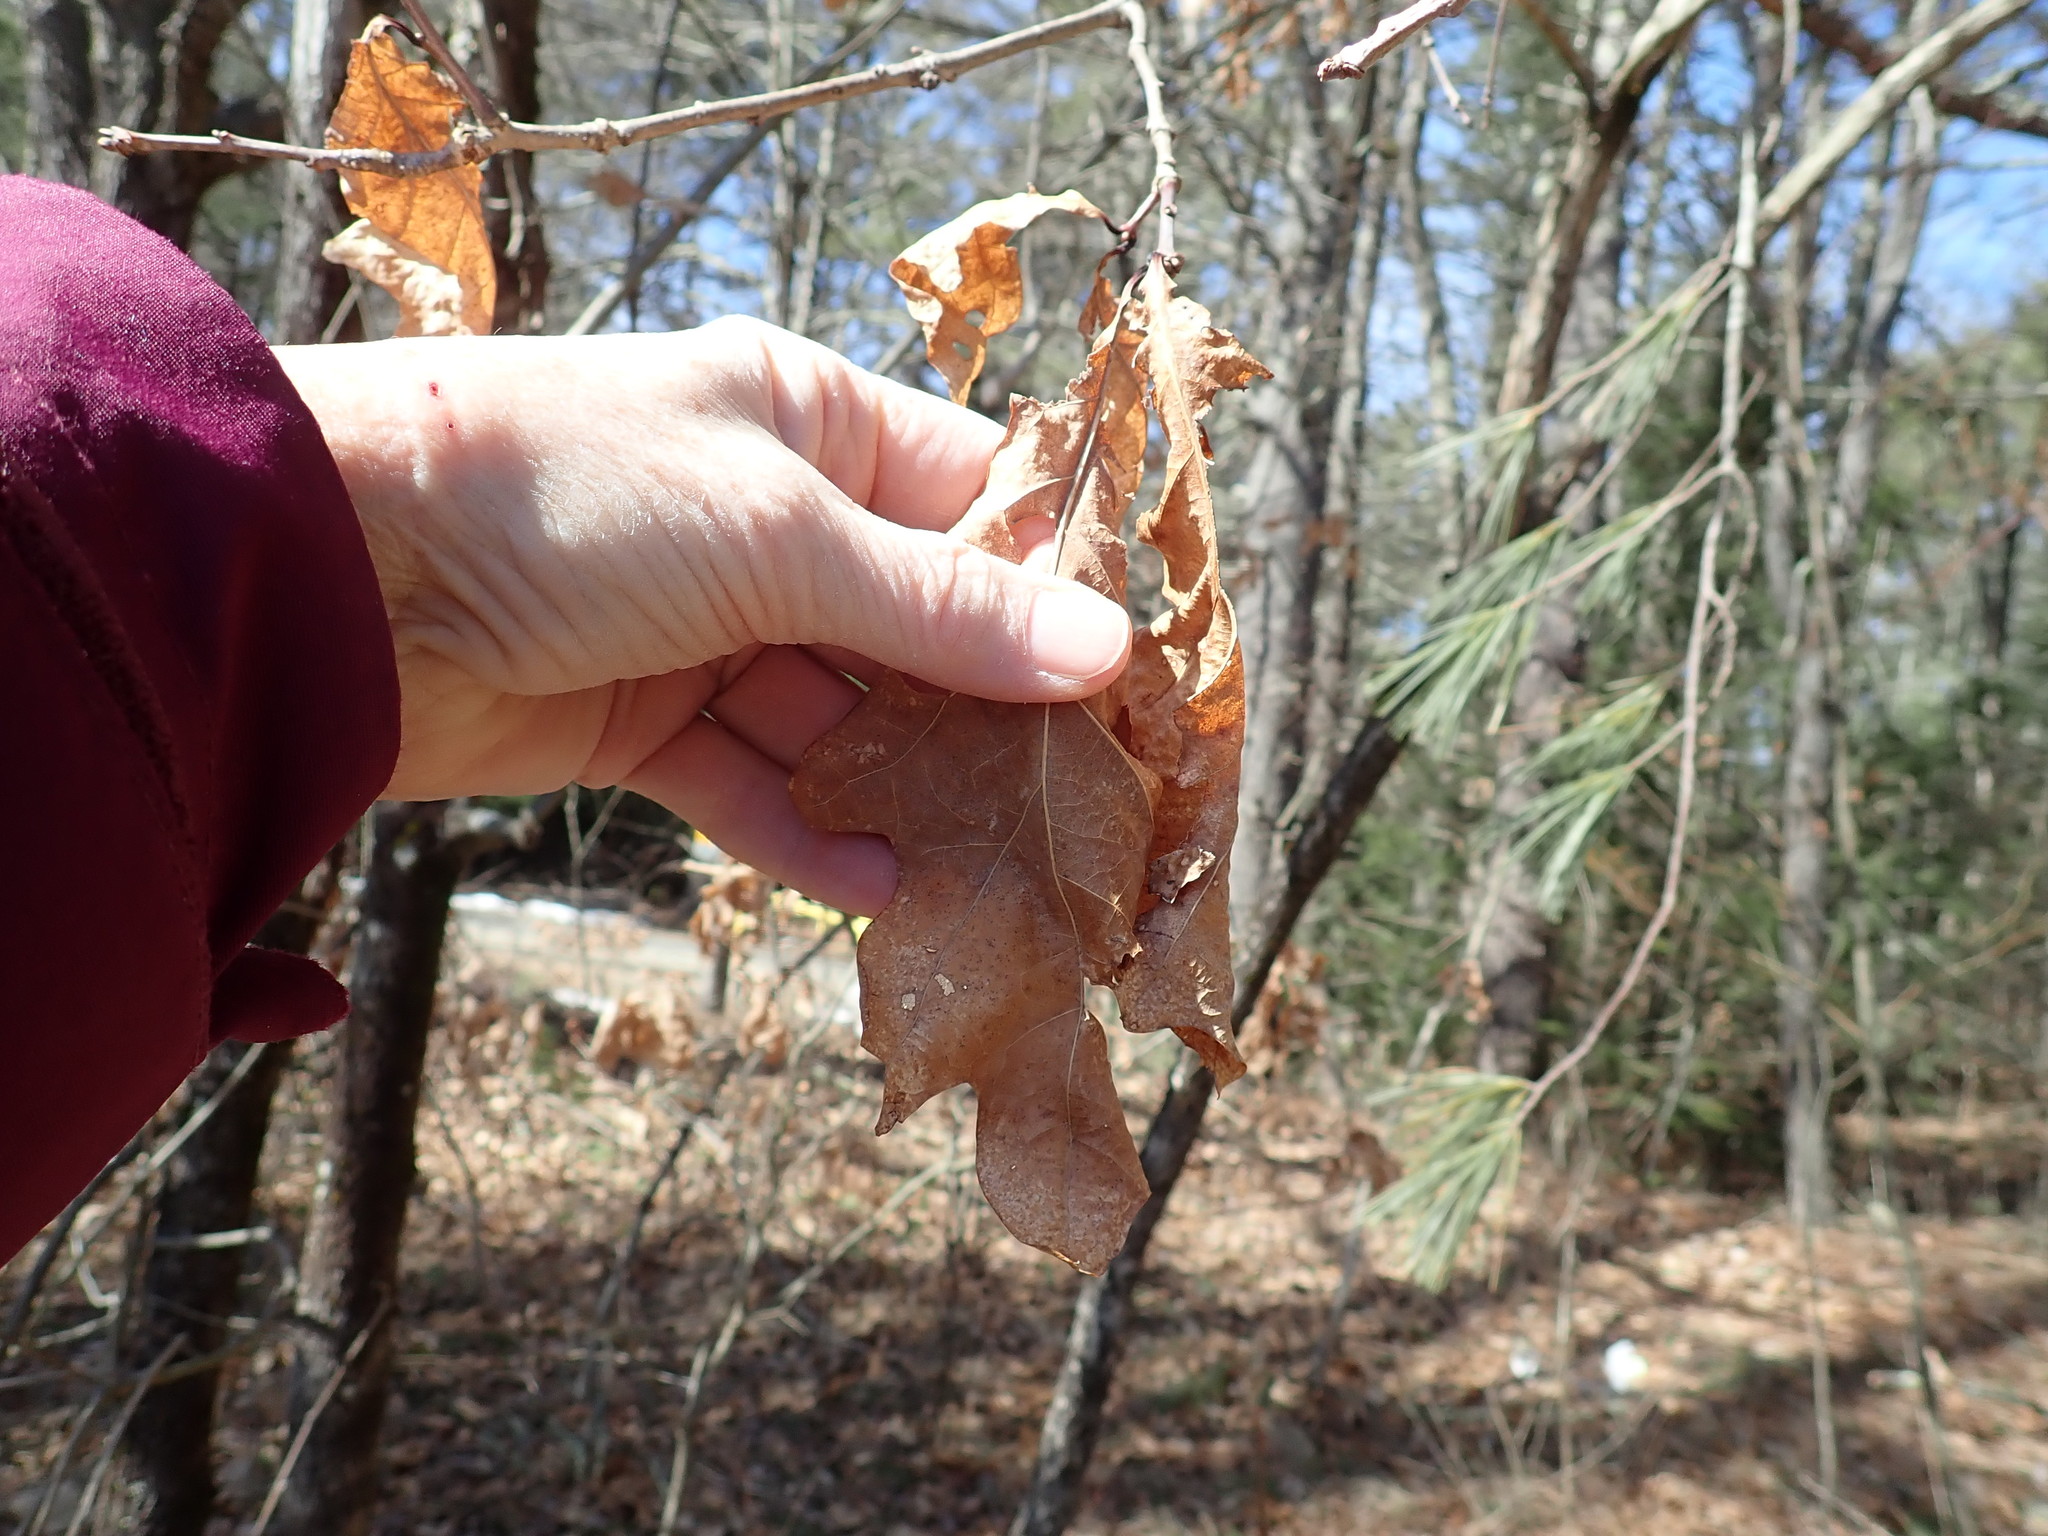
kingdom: Plantae
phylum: Tracheophyta
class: Magnoliopsida
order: Fagales
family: Fagaceae
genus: Quercus
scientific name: Quercus alba
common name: White oak
